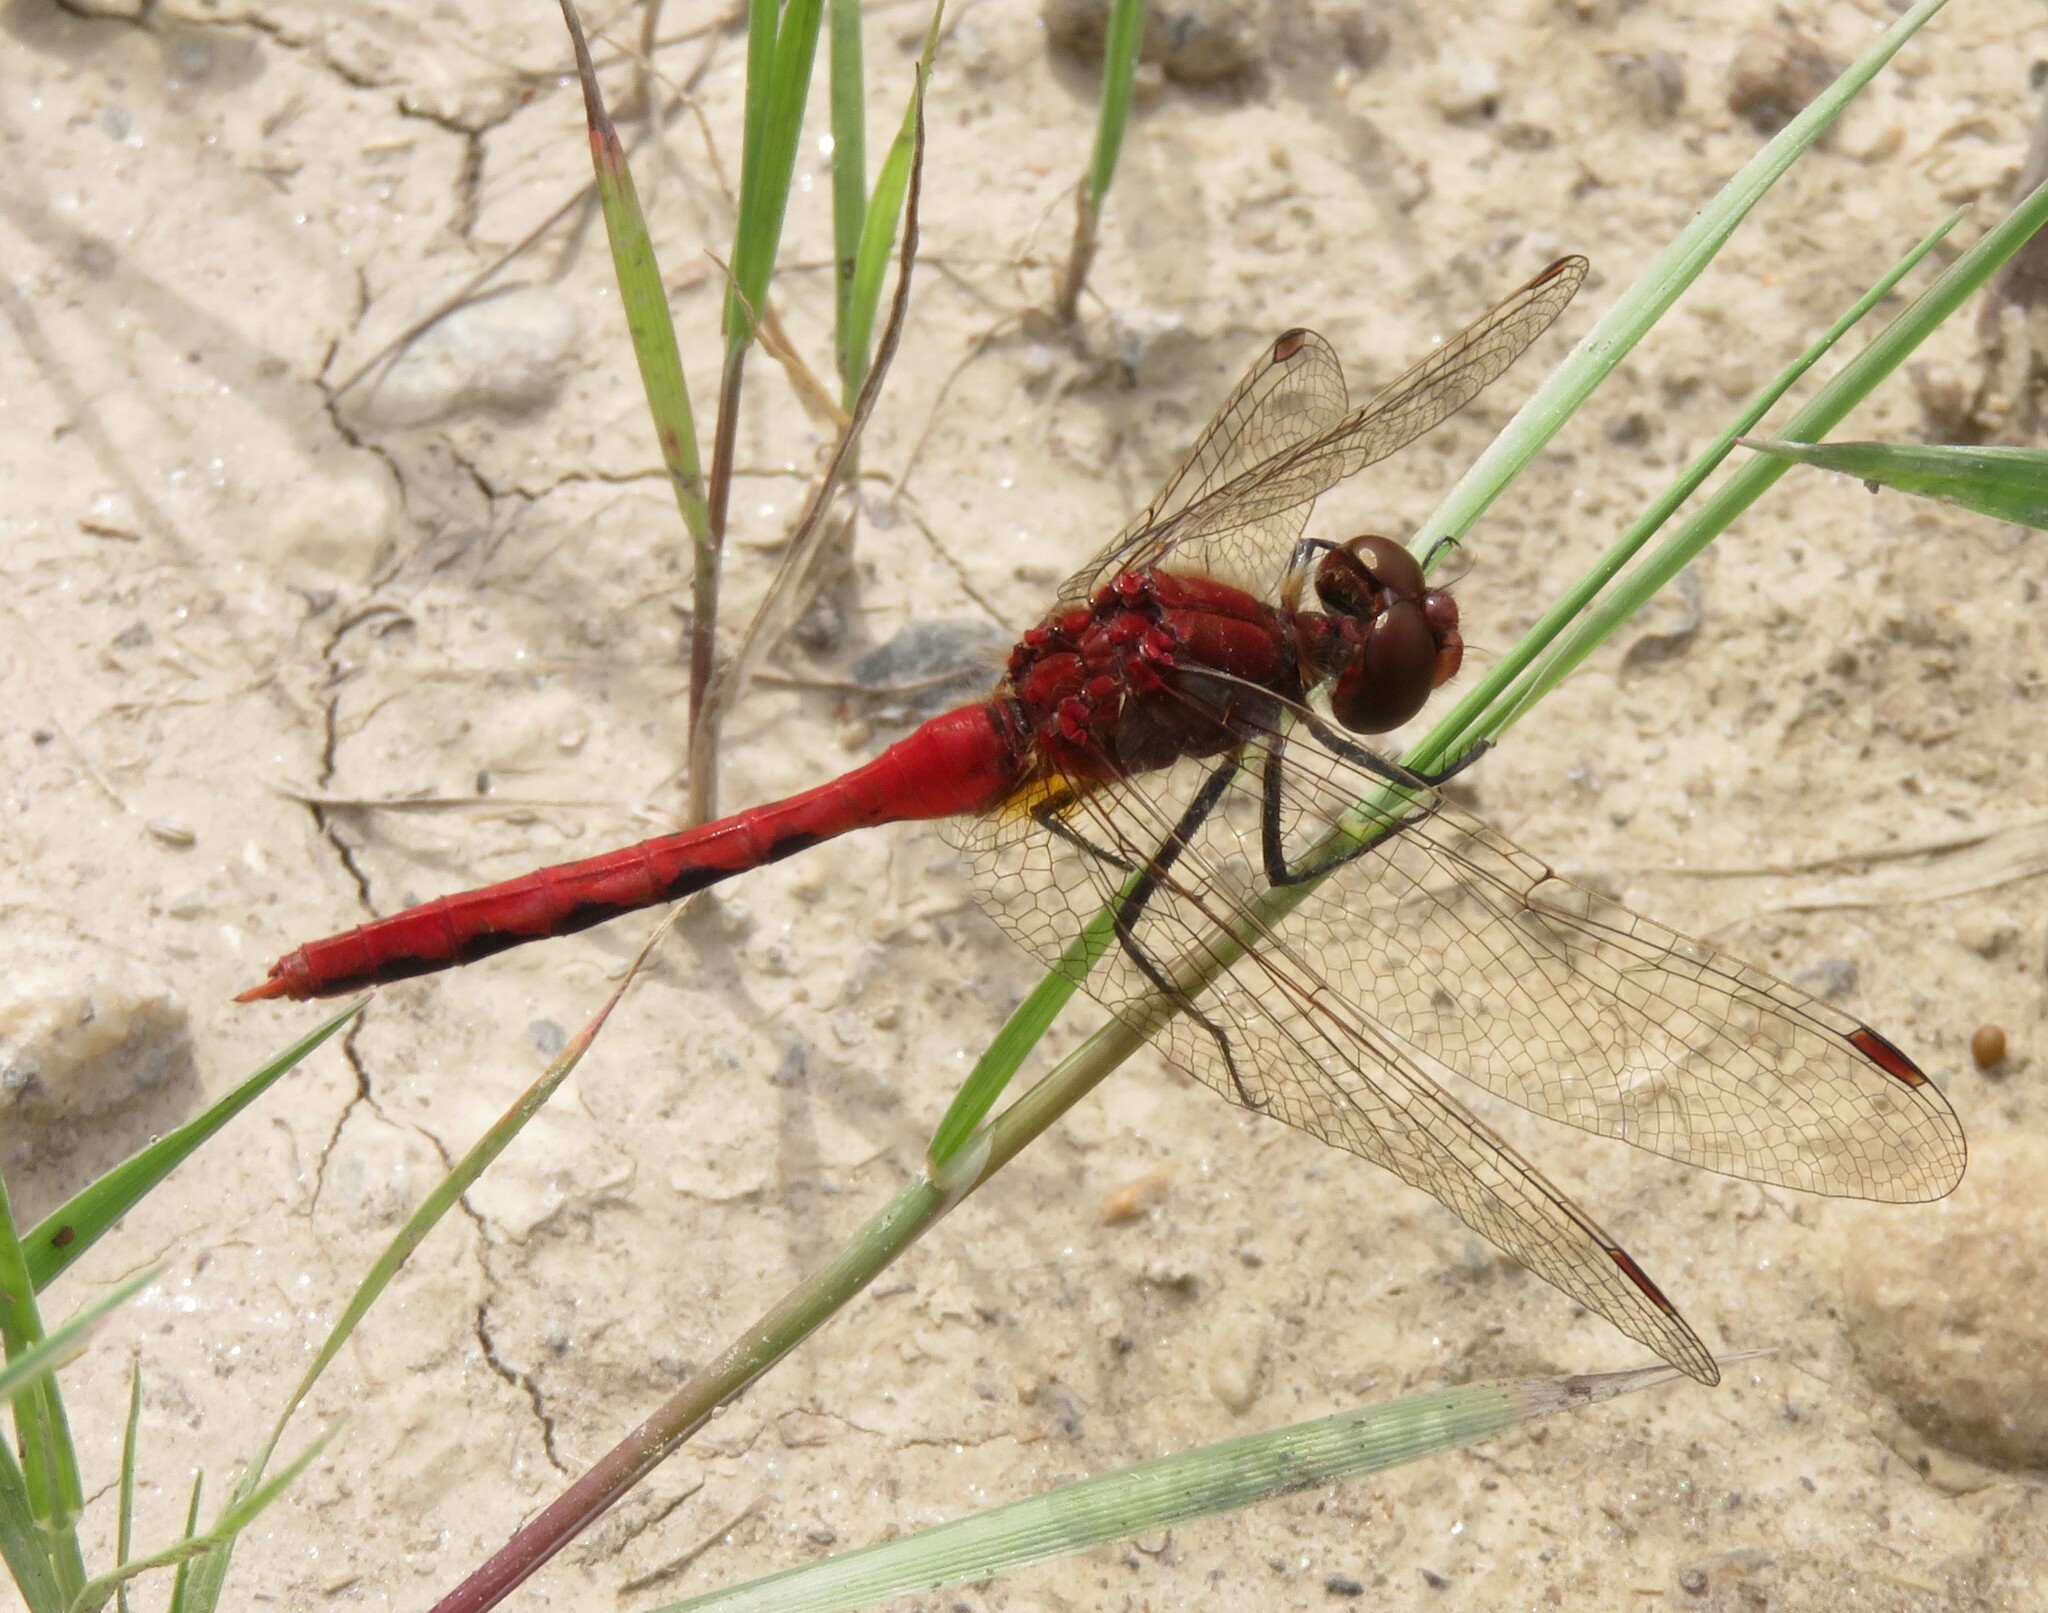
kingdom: Animalia
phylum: Arthropoda
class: Insecta
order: Odonata
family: Libellulidae
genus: Sympetrum
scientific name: Sympetrum internum
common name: Cherry-faced meadowhawk
